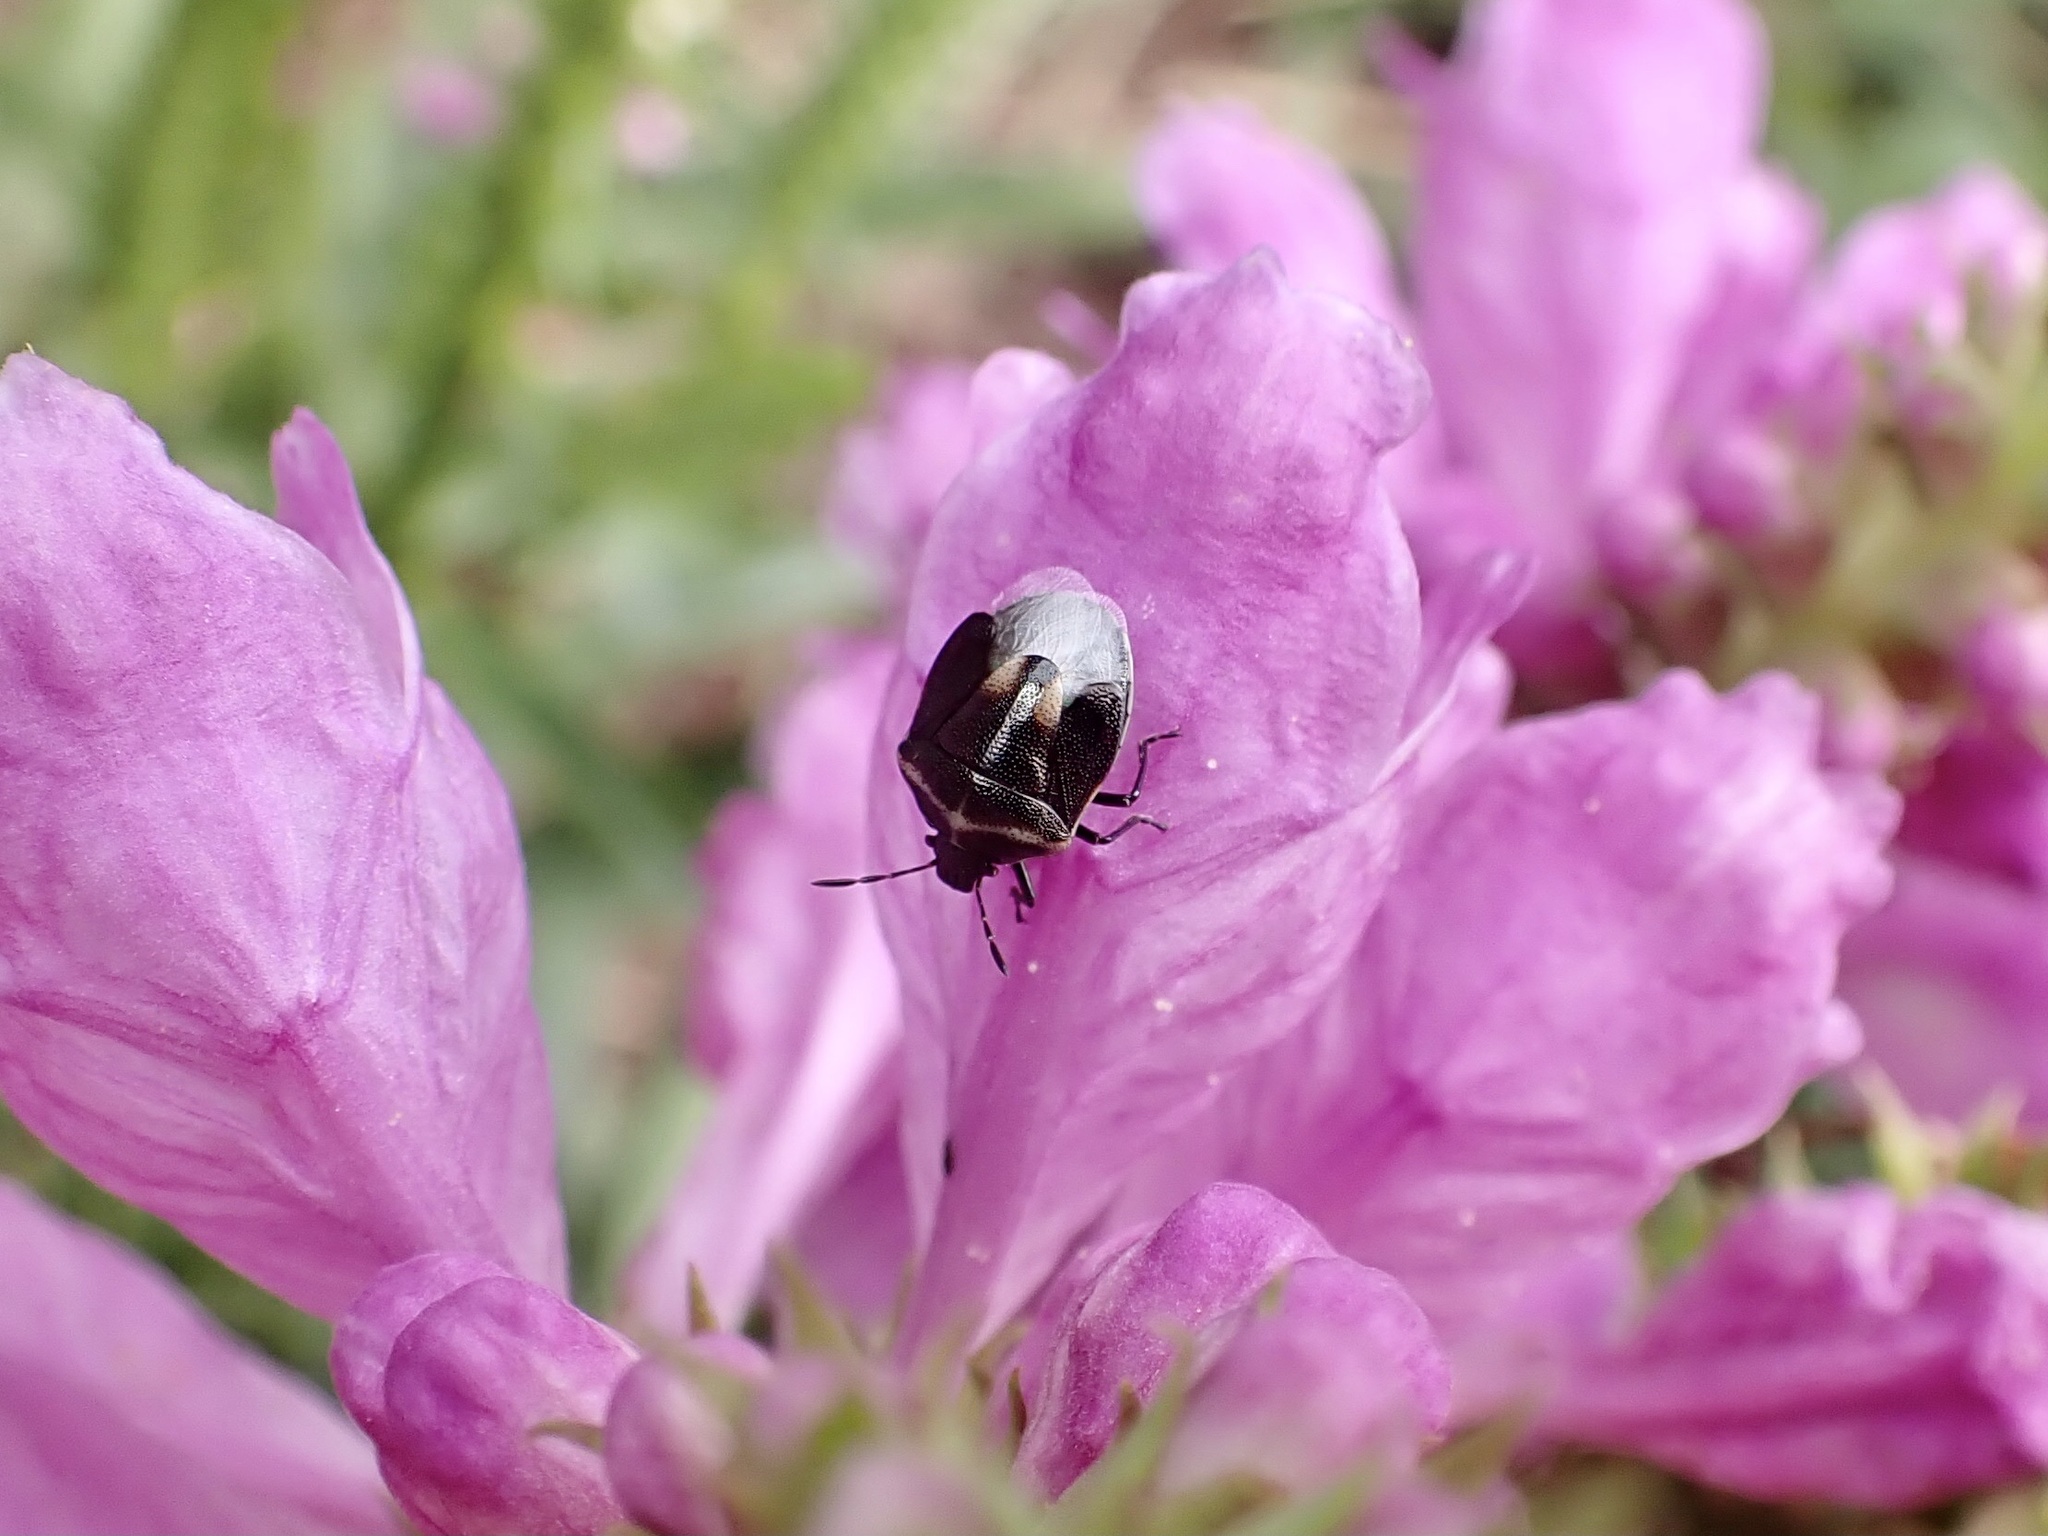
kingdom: Animalia
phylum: Arthropoda
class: Insecta
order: Hemiptera
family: Pentatomidae
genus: Cosmopepla
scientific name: Cosmopepla lintneriana
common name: Twice-stabbed stink bug
